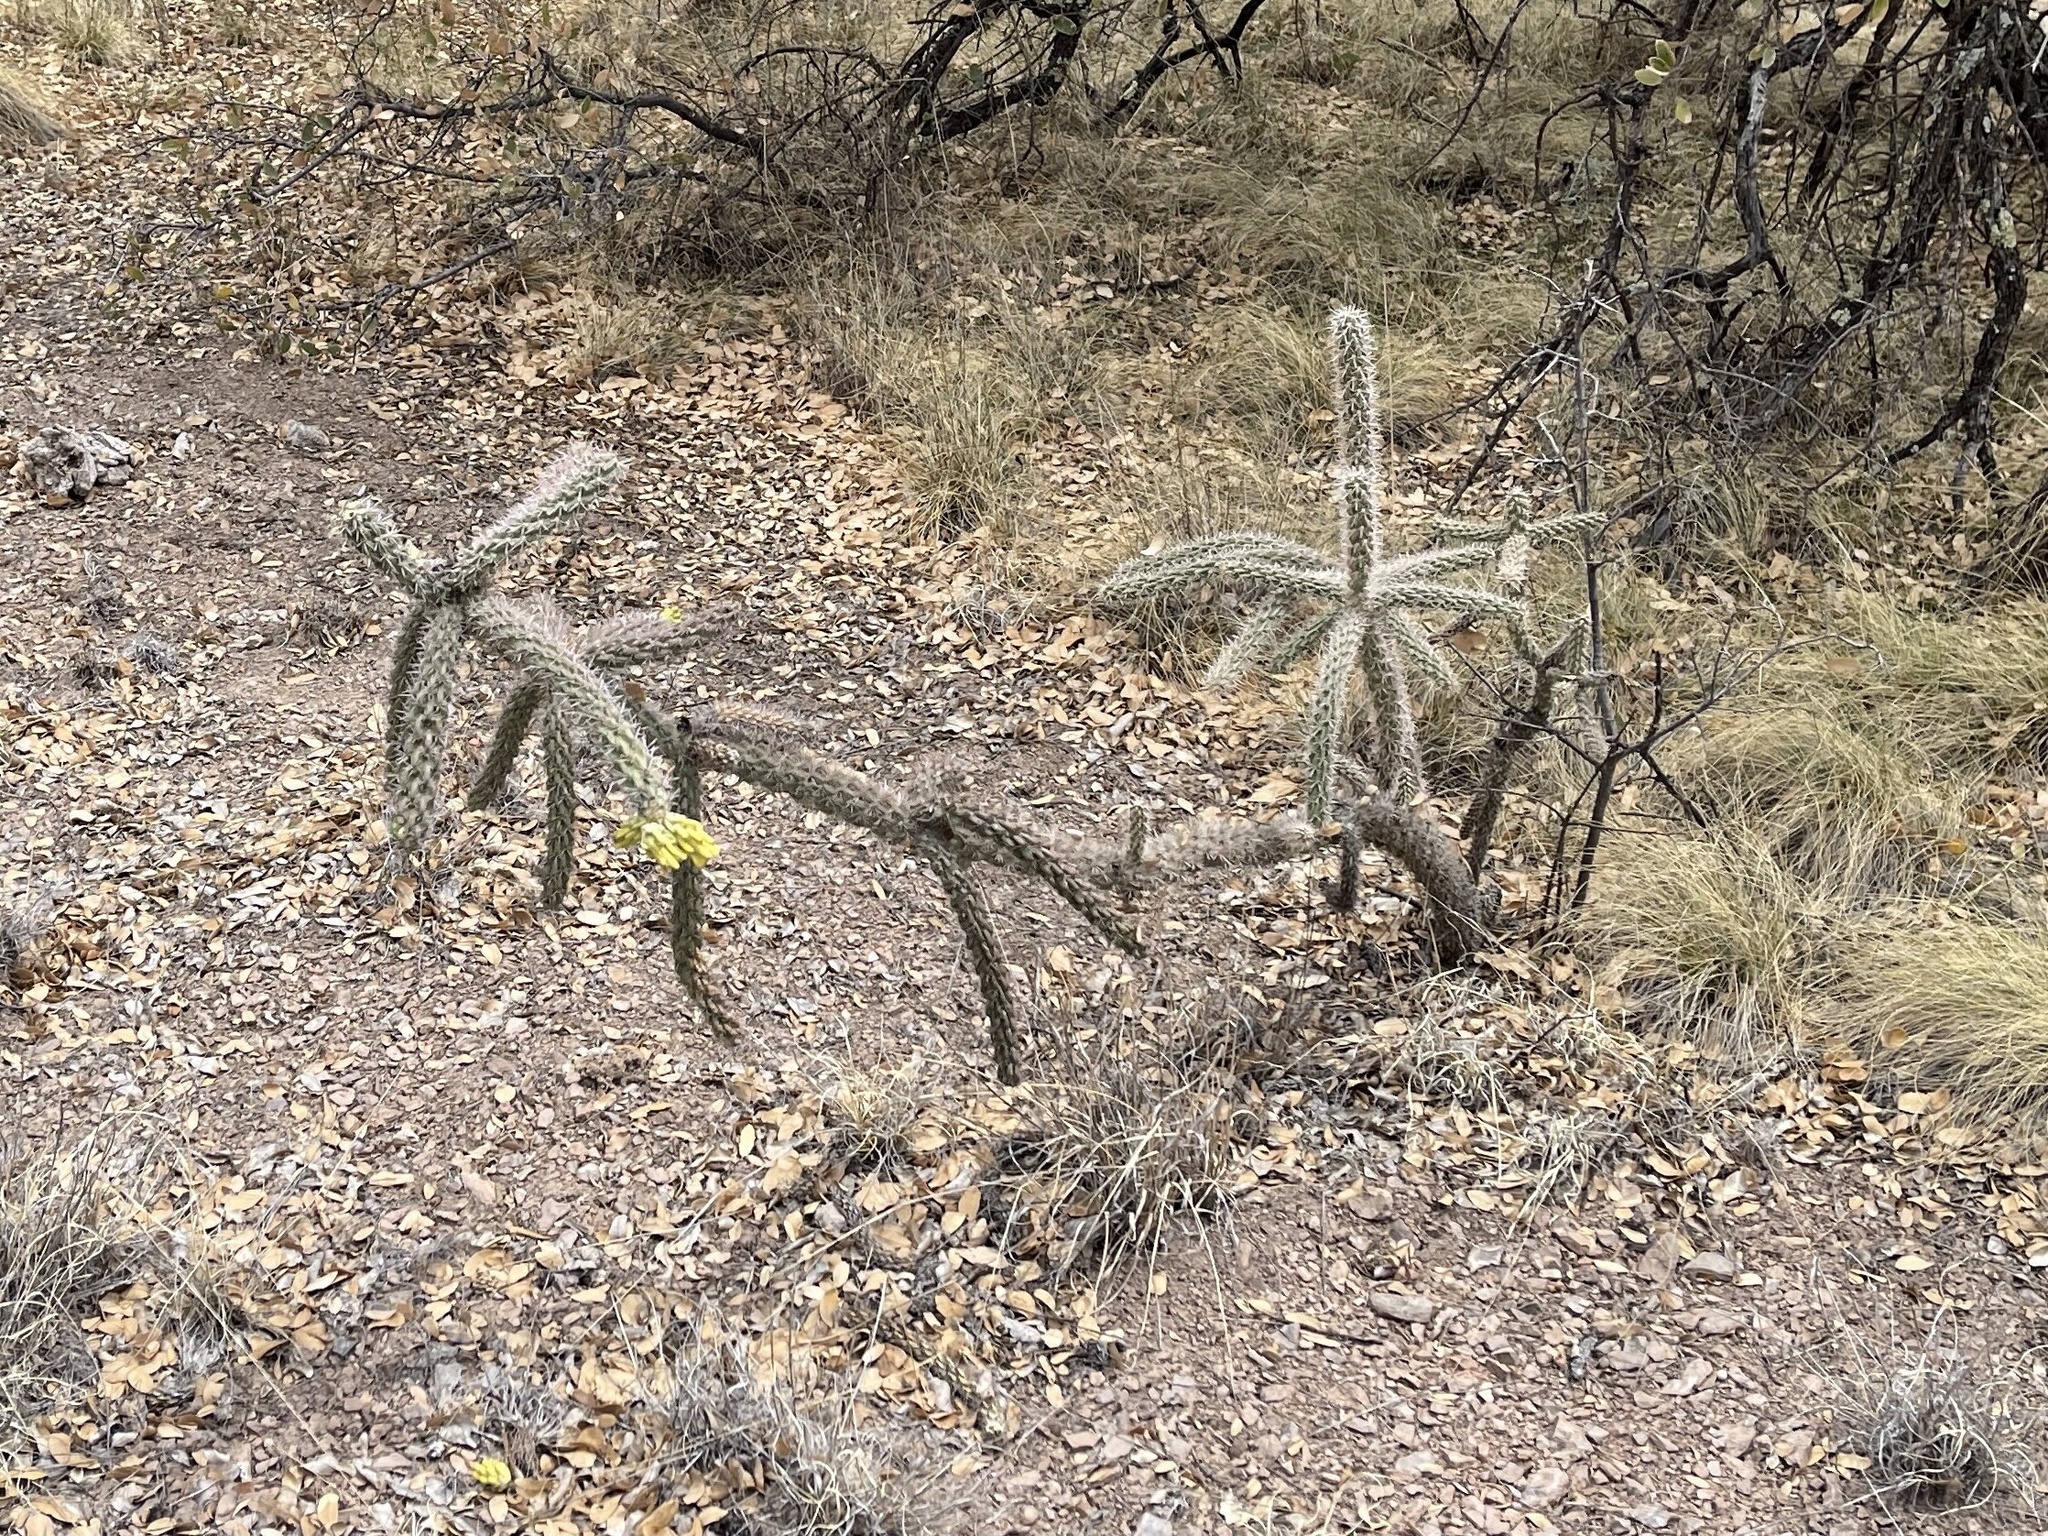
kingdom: Plantae
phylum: Tracheophyta
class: Magnoliopsida
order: Caryophyllales
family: Cactaceae
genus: Cylindropuntia
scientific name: Cylindropuntia imbricata
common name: Candelabrum cactus
